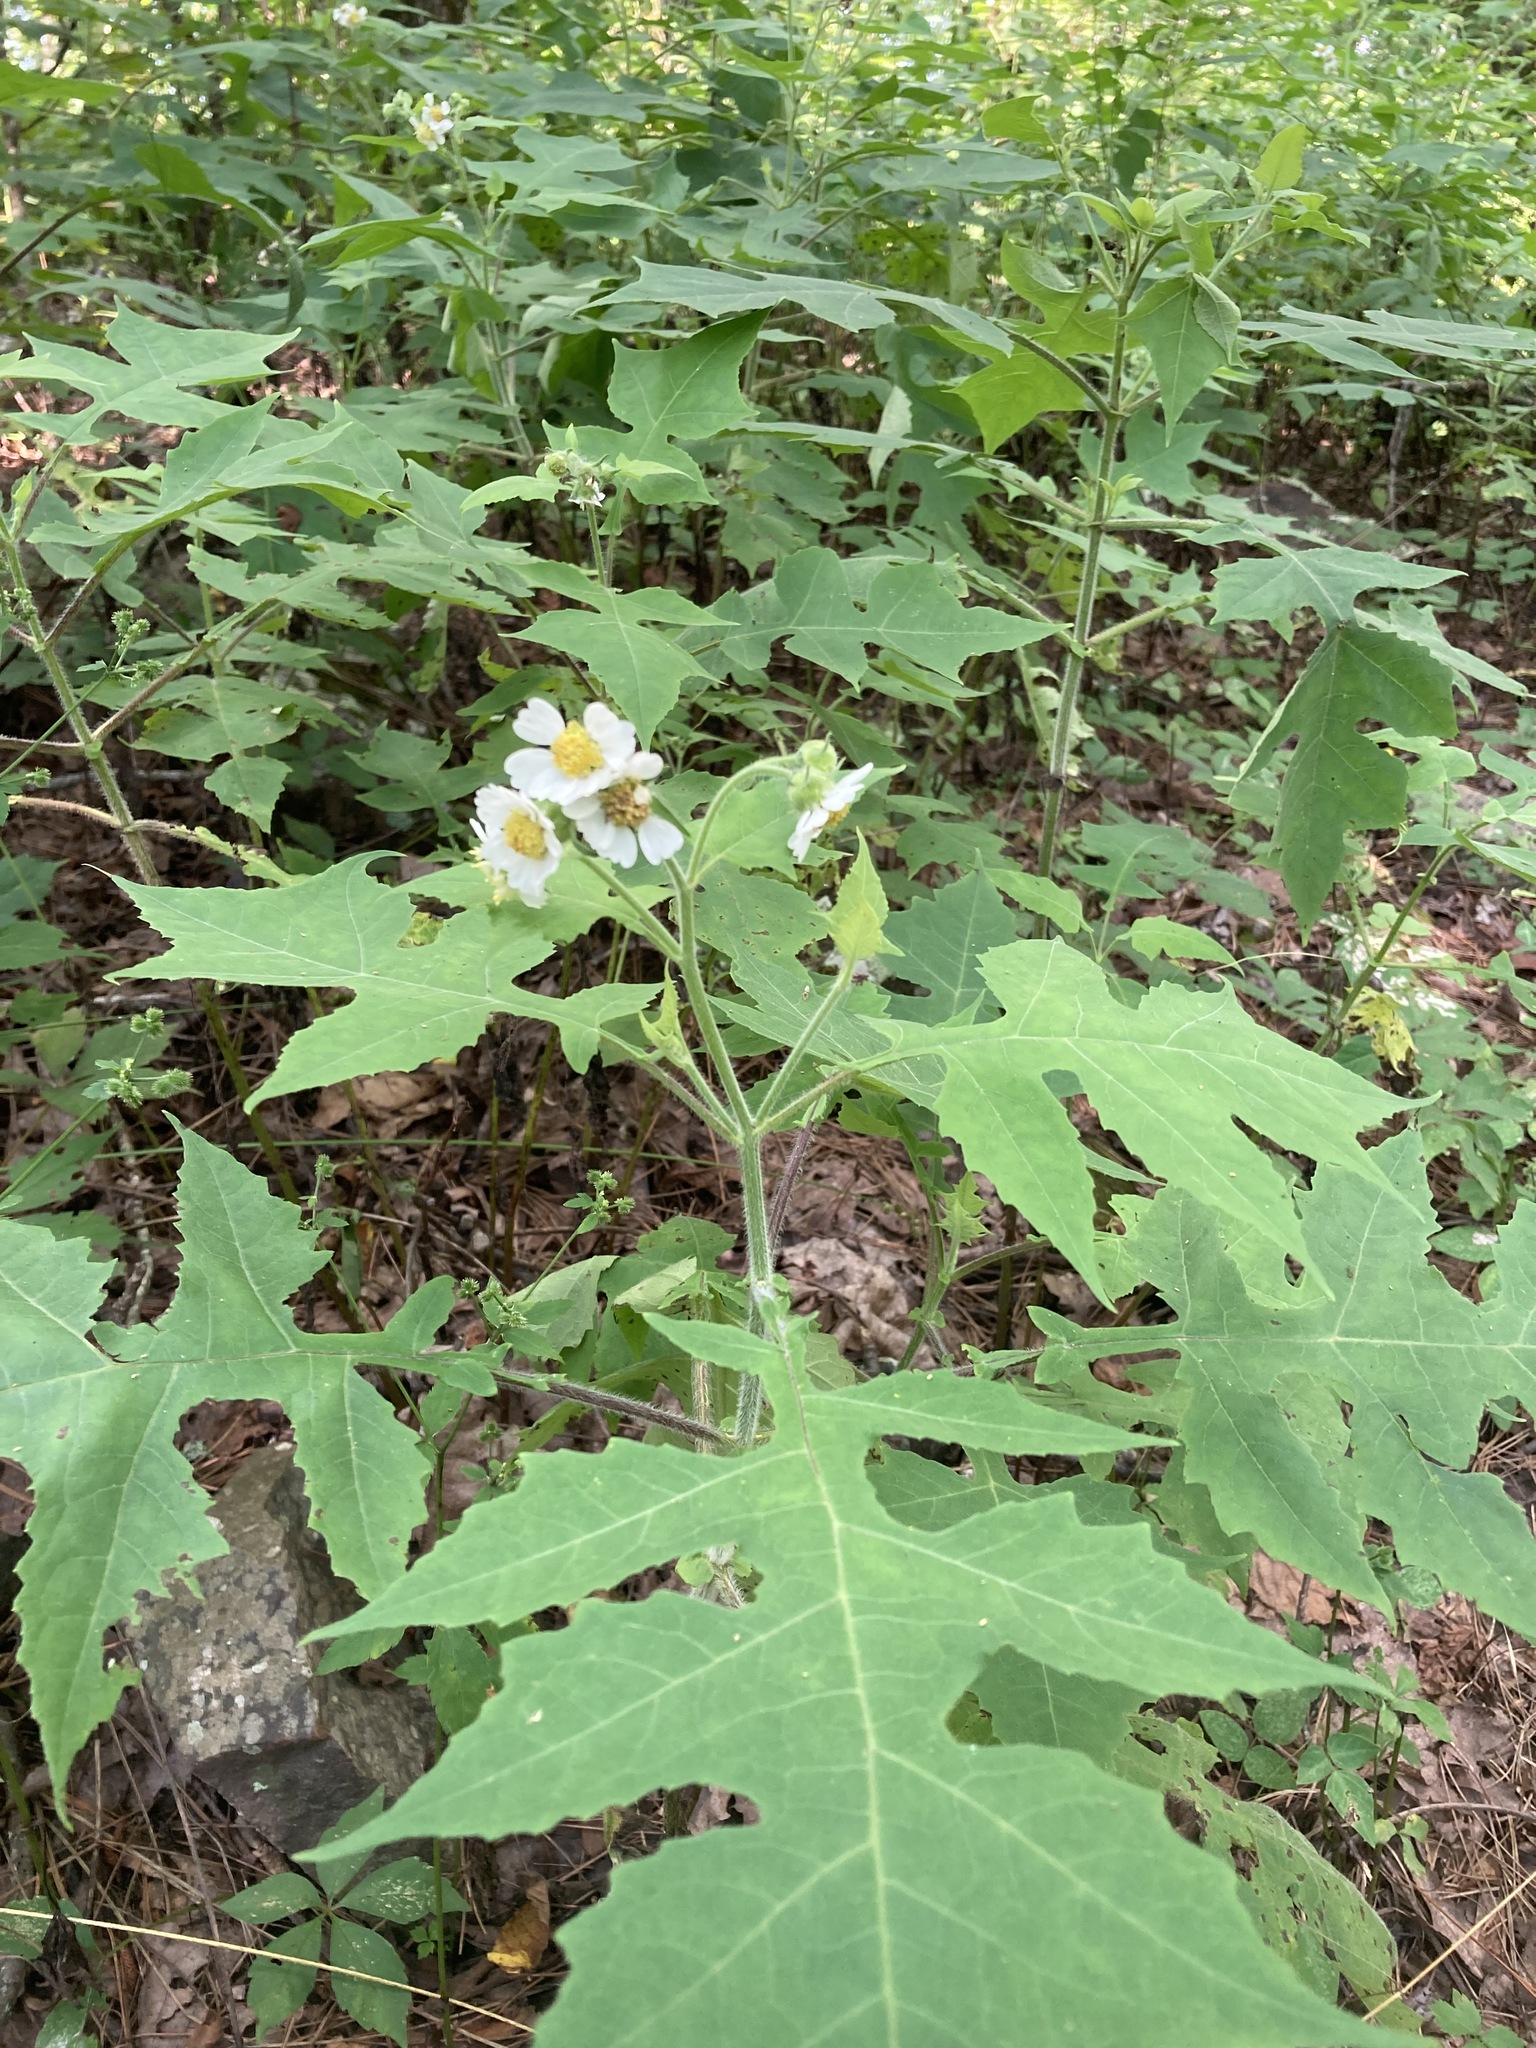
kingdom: Plantae
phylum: Tracheophyta
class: Magnoliopsida
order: Asterales
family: Asteraceae
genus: Polymnia
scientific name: Polymnia canadensis
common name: Pale-flowered leafcup
